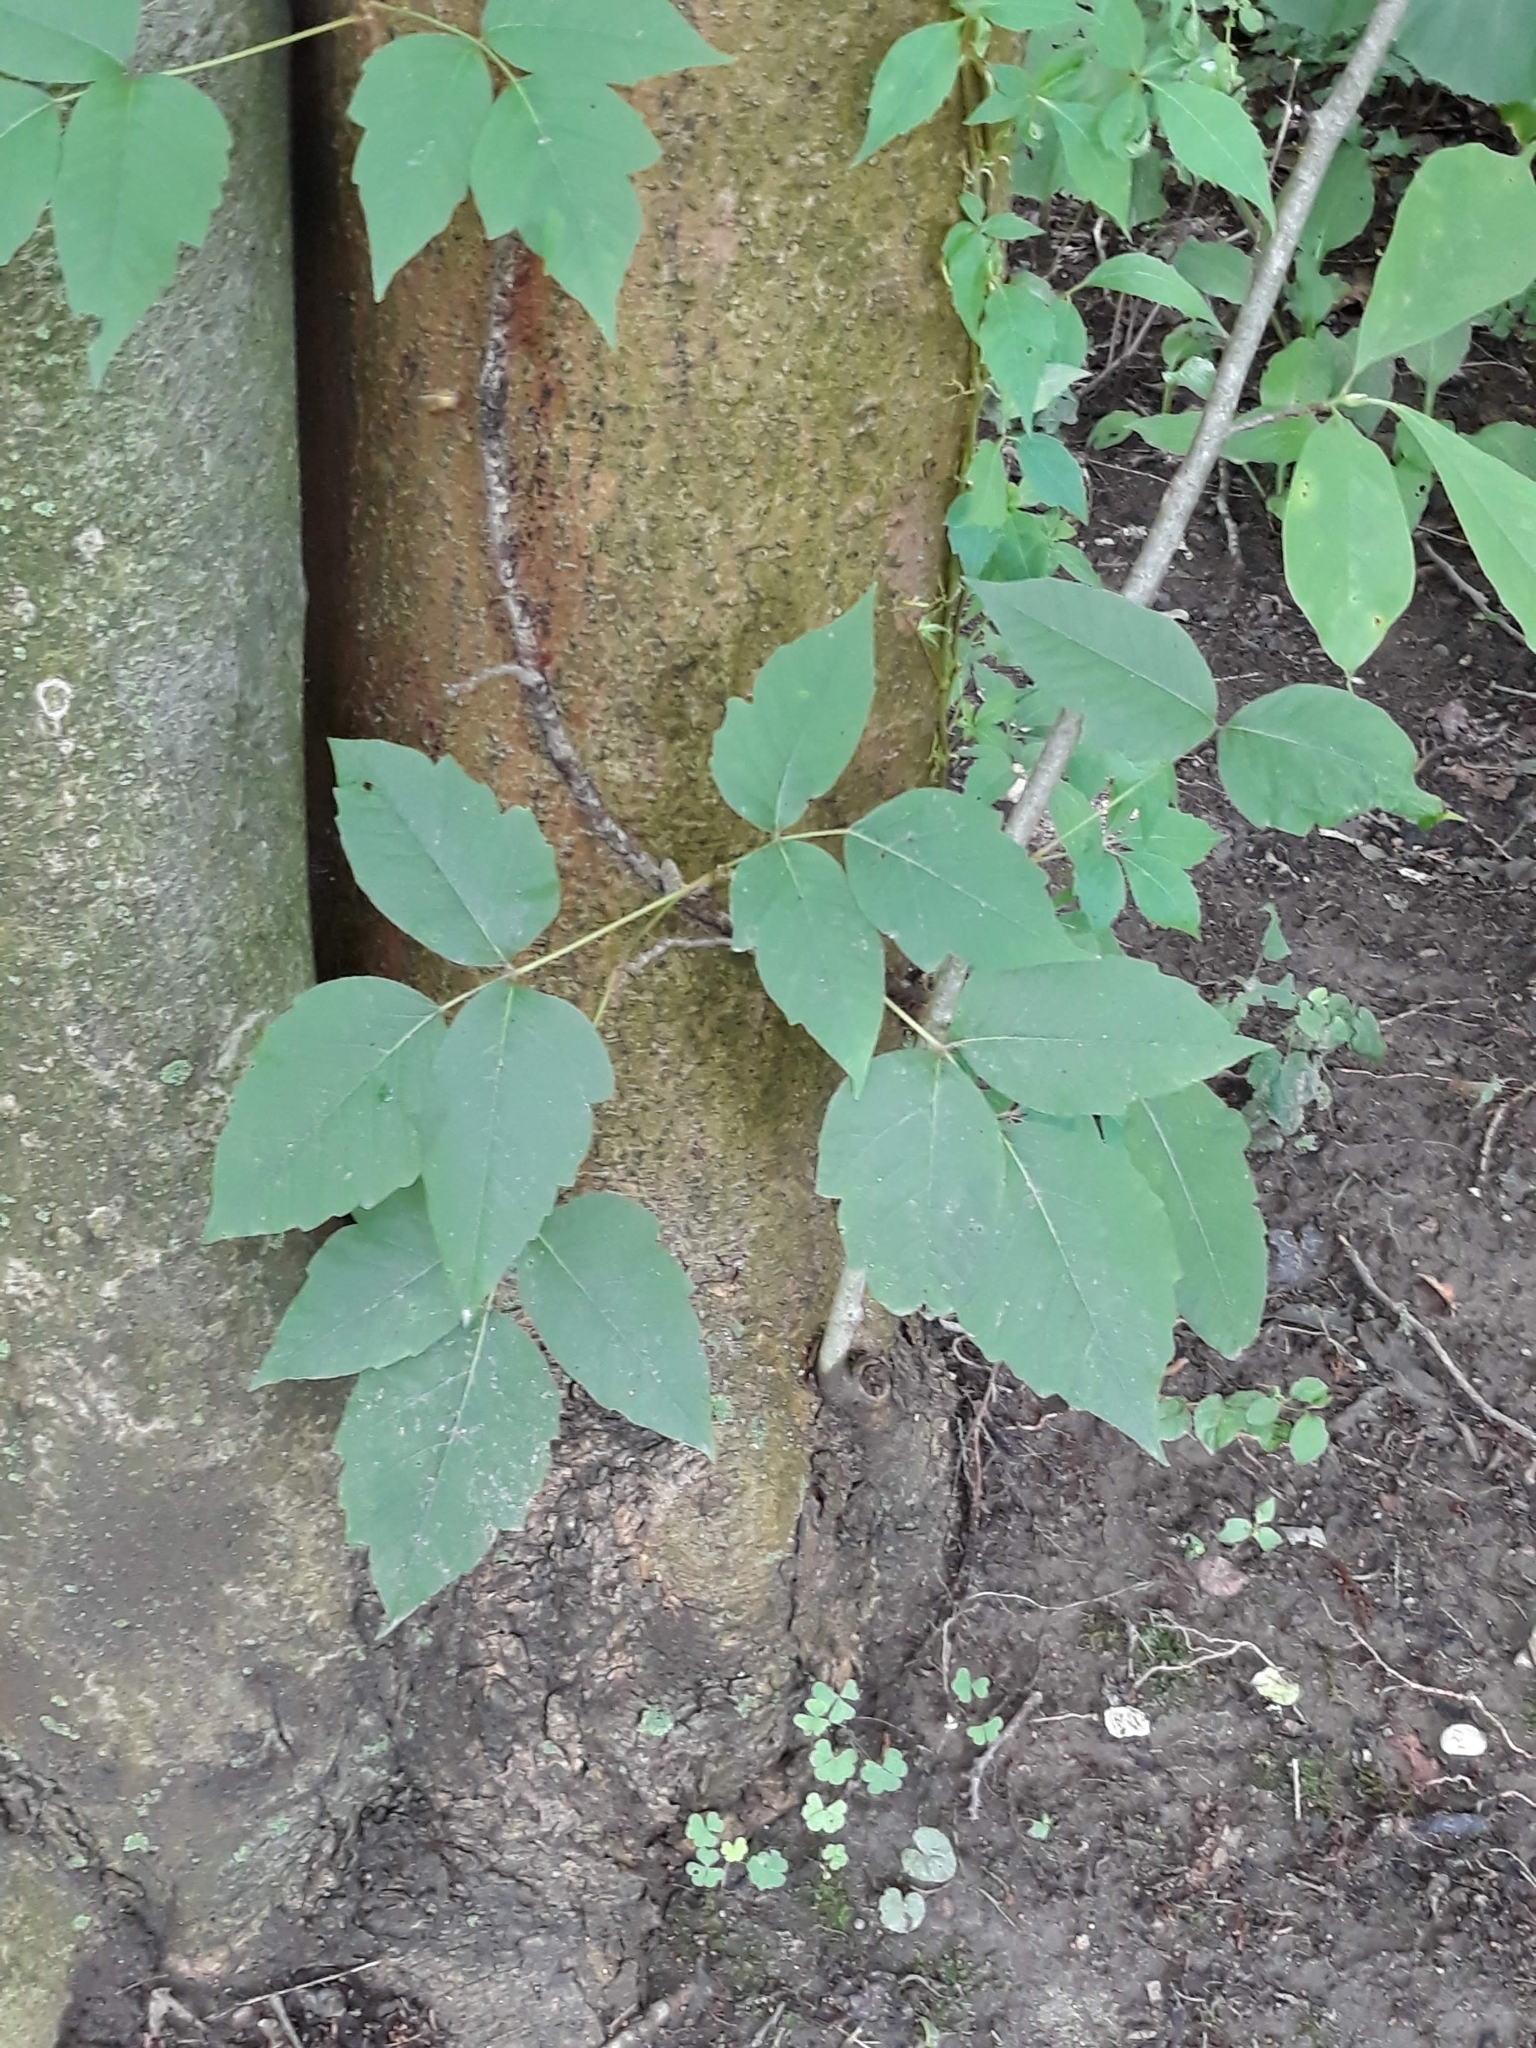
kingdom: Plantae
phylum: Tracheophyta
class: Magnoliopsida
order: Sapindales
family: Anacardiaceae
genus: Toxicodendron
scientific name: Toxicodendron radicans
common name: Poison ivy
